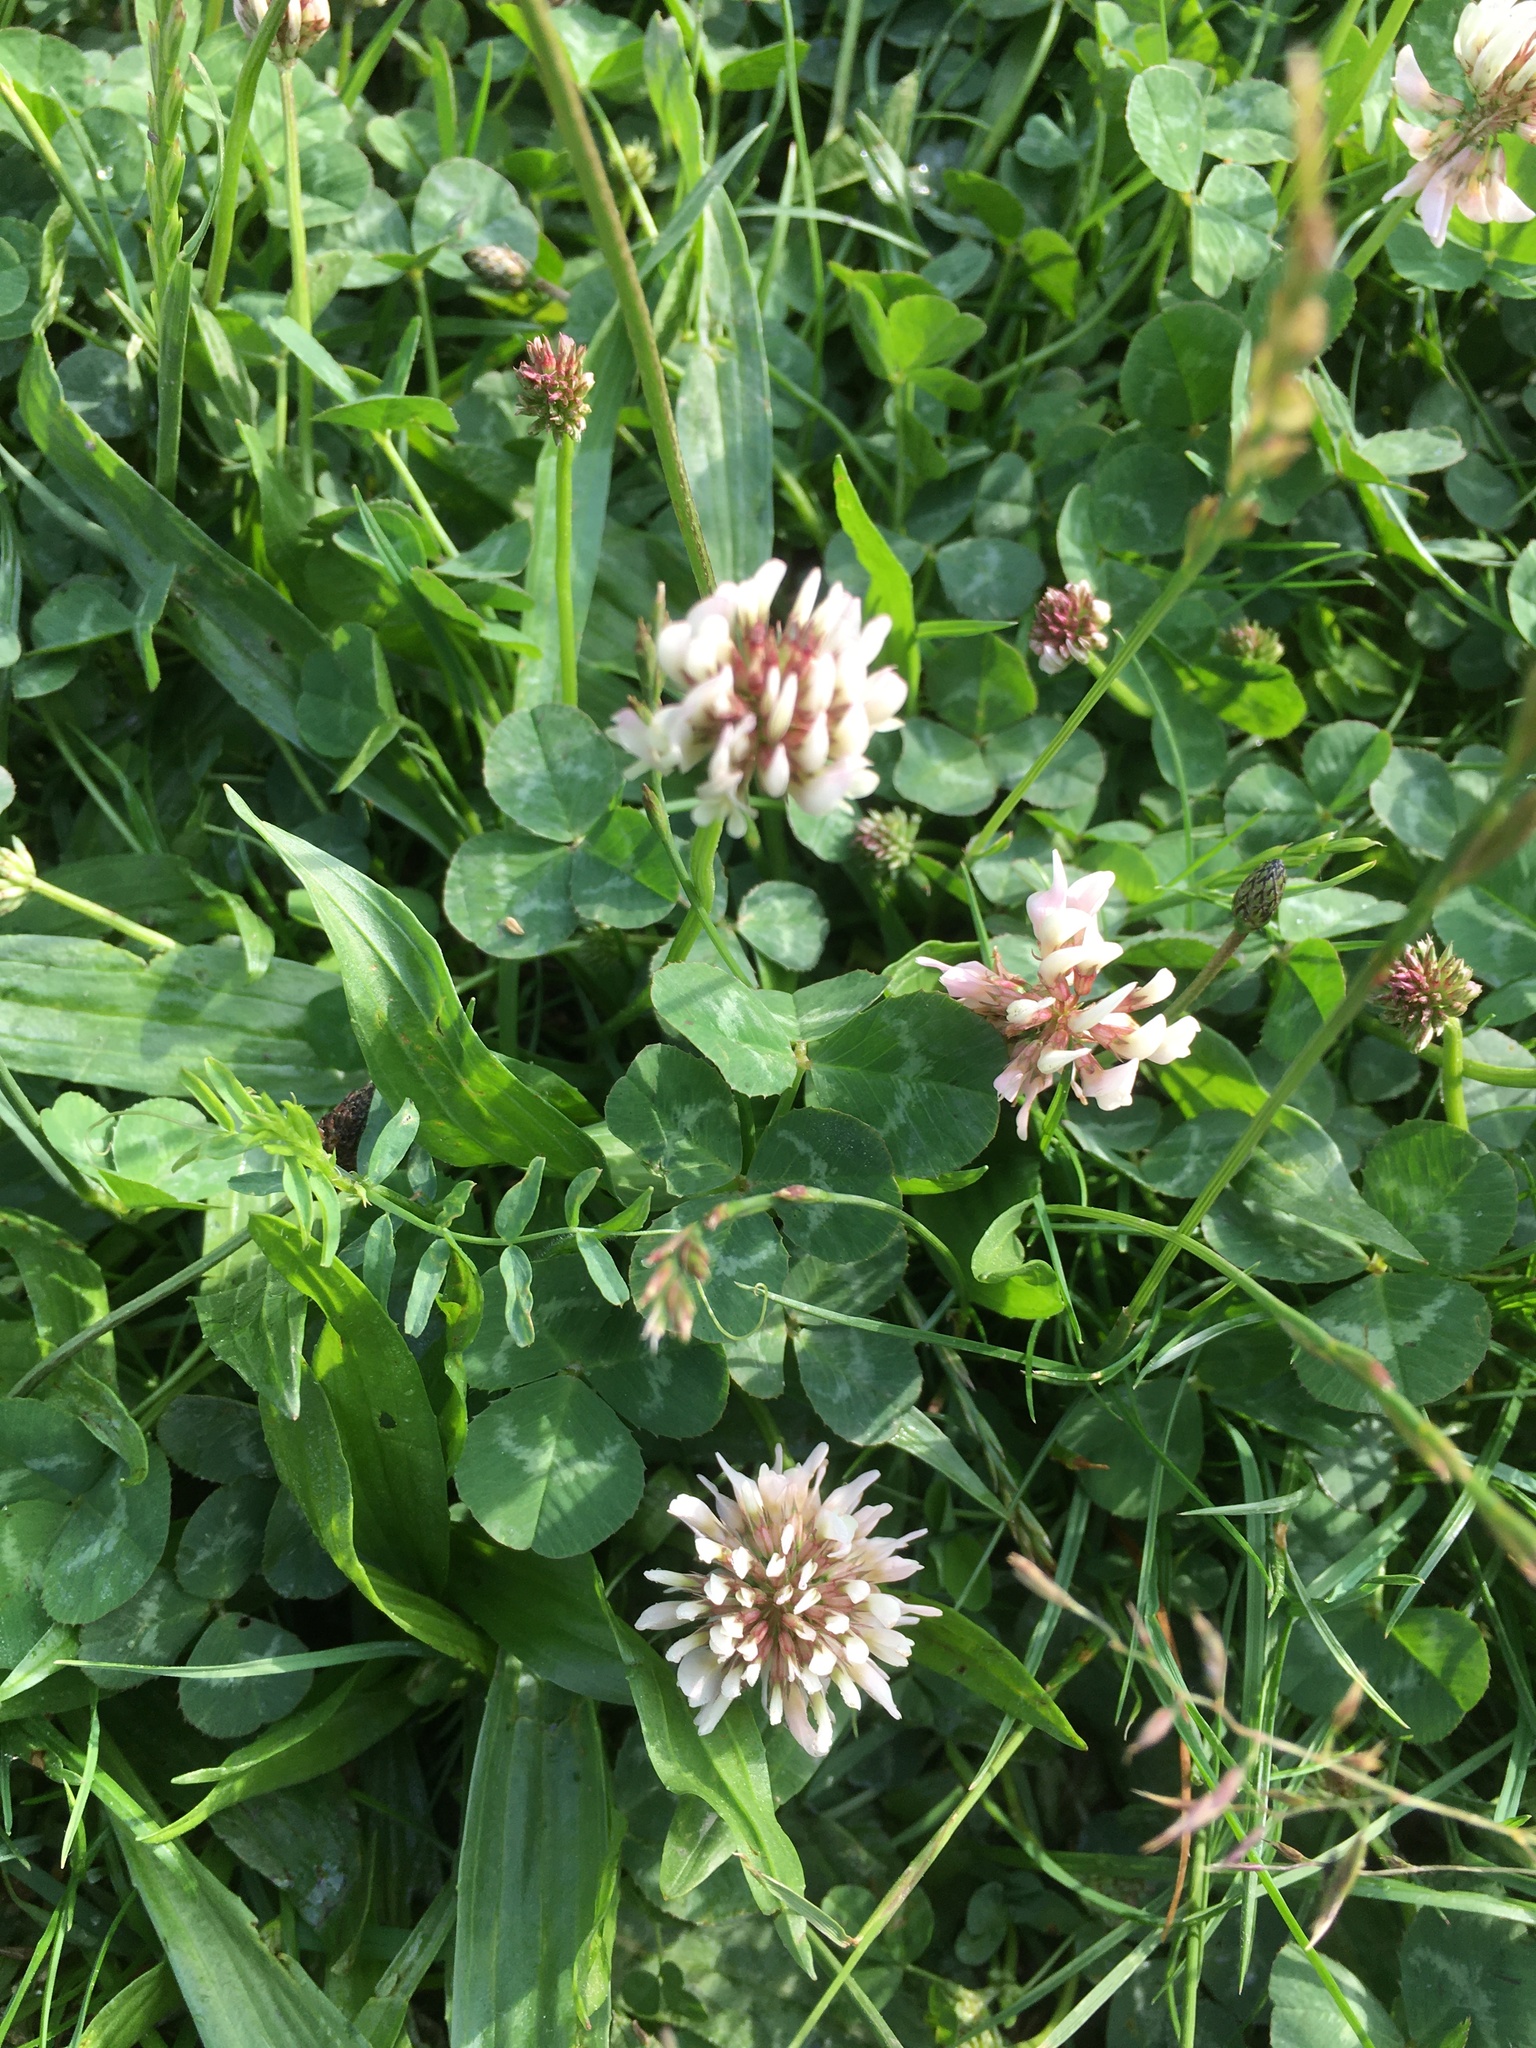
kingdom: Plantae
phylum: Tracheophyta
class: Magnoliopsida
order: Fabales
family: Fabaceae
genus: Trifolium
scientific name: Trifolium repens
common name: White clover
